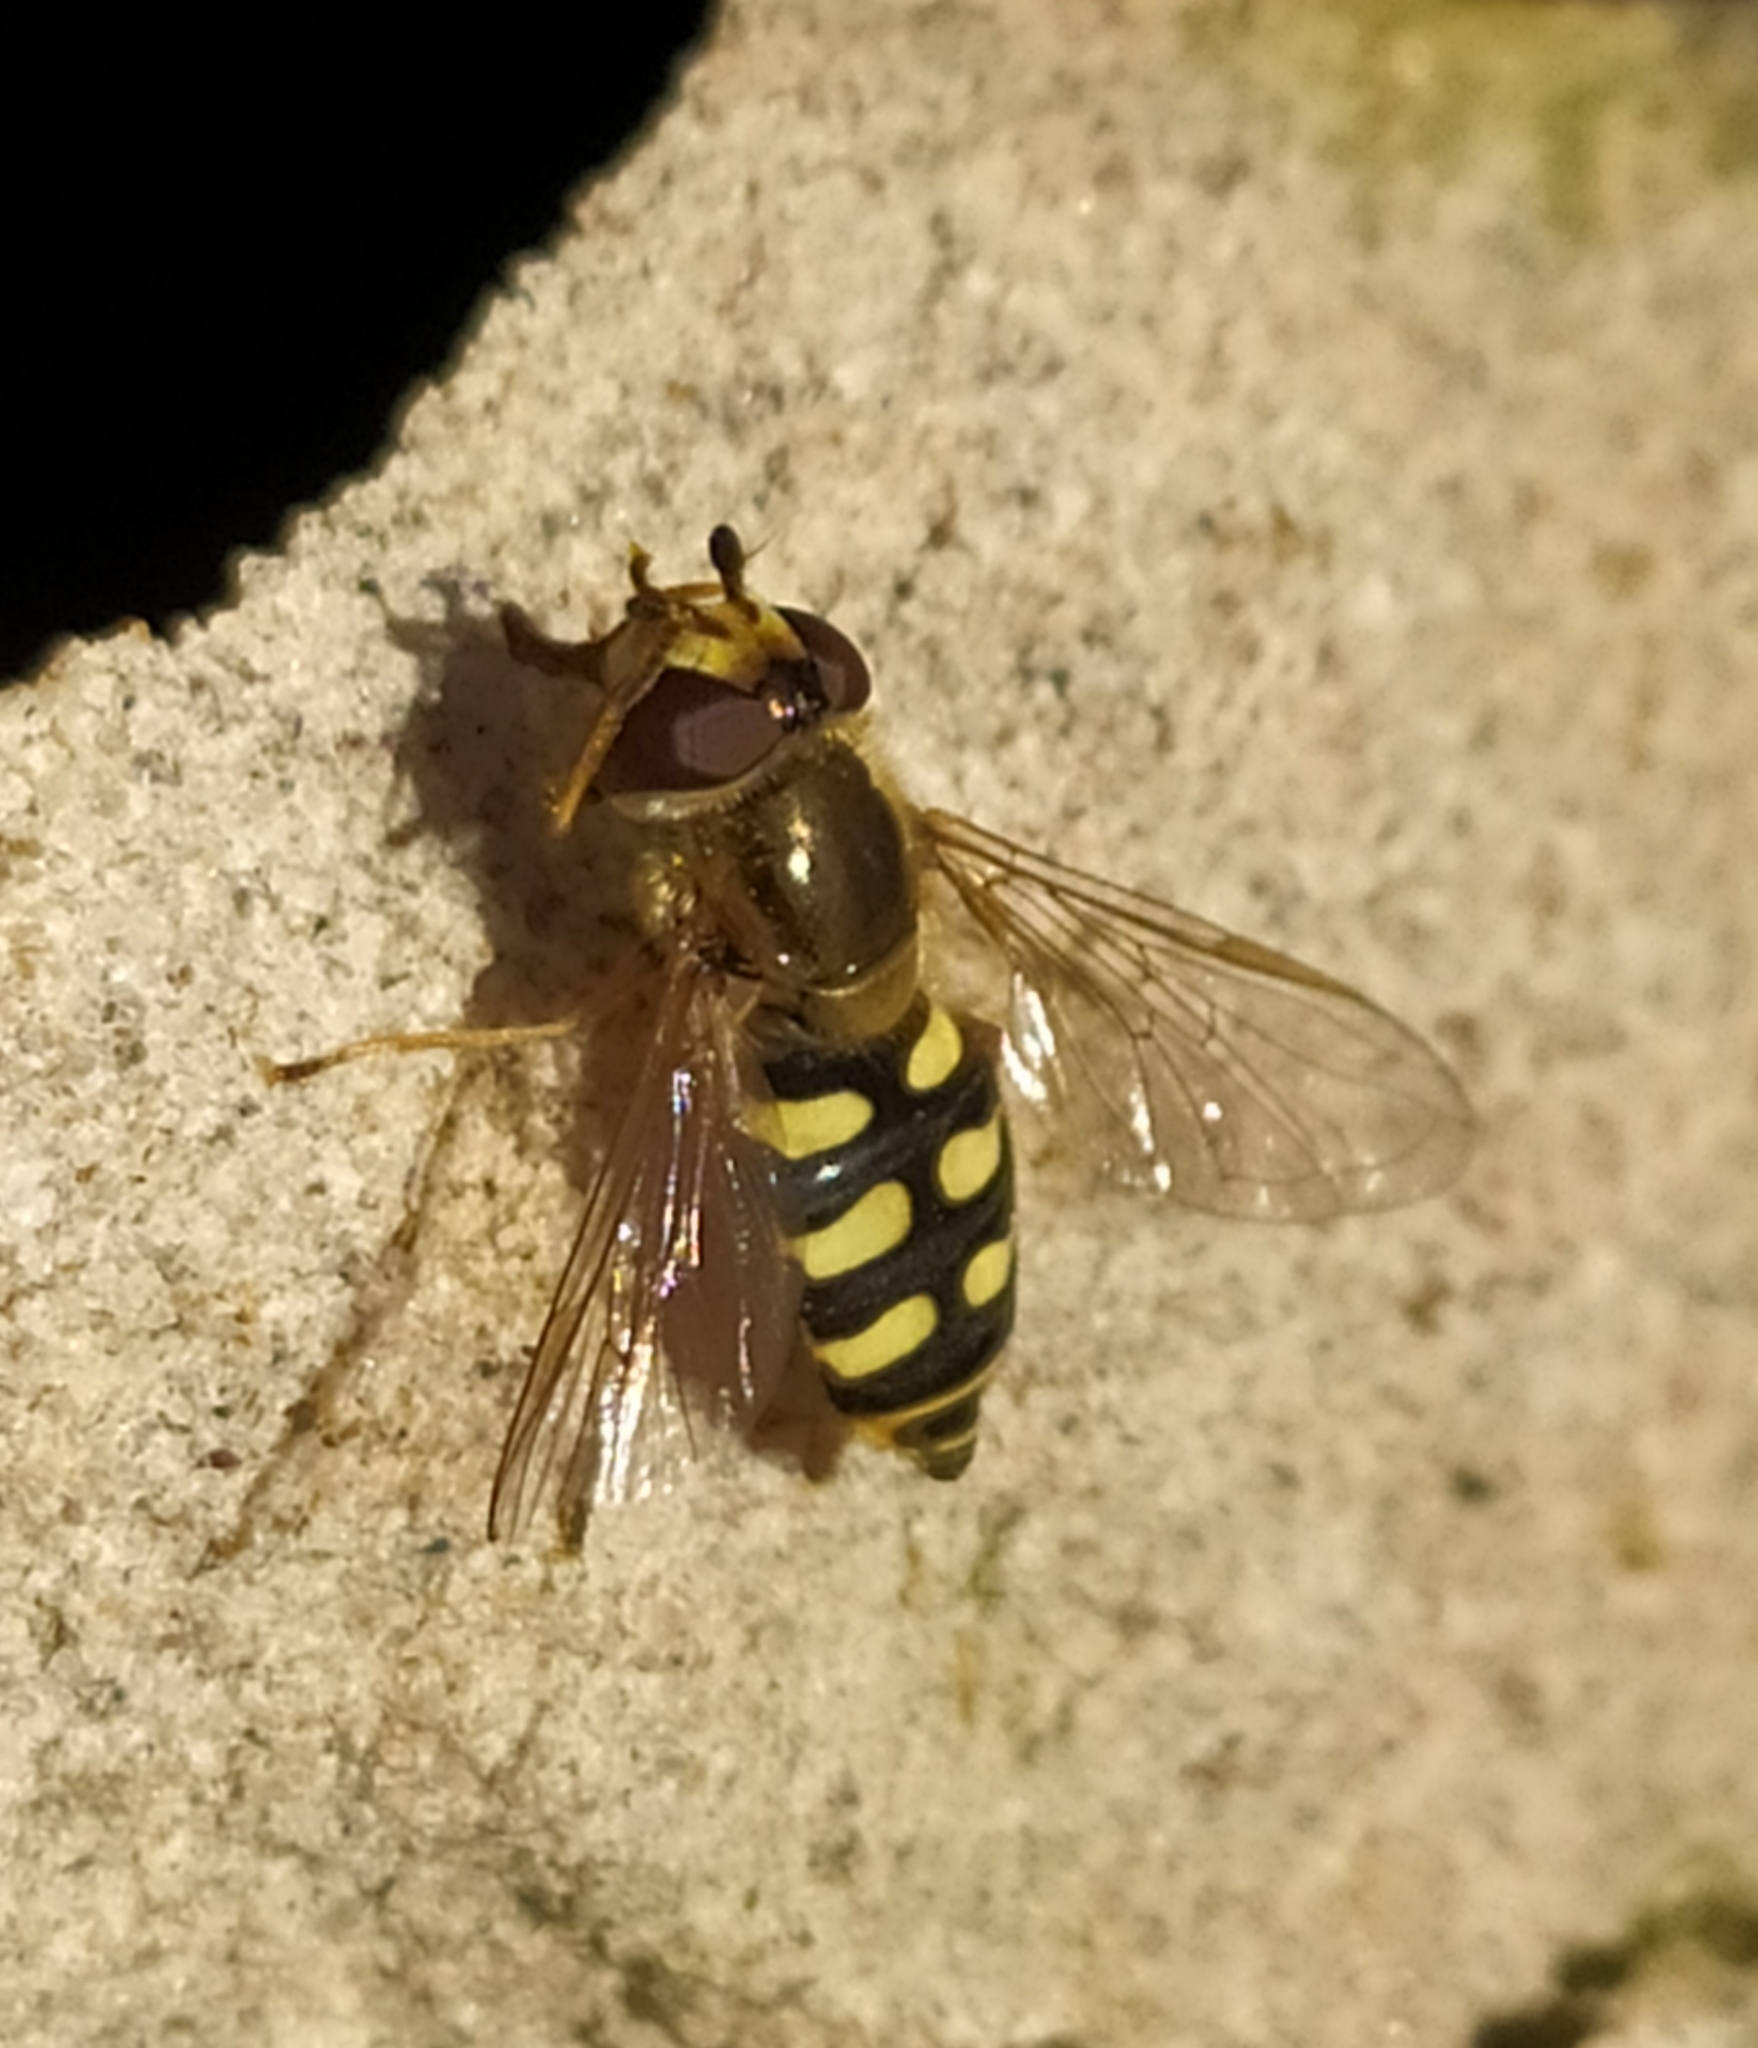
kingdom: Animalia
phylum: Arthropoda
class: Insecta
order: Diptera
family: Syrphidae
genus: Eupeodes
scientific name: Eupeodes corollae
